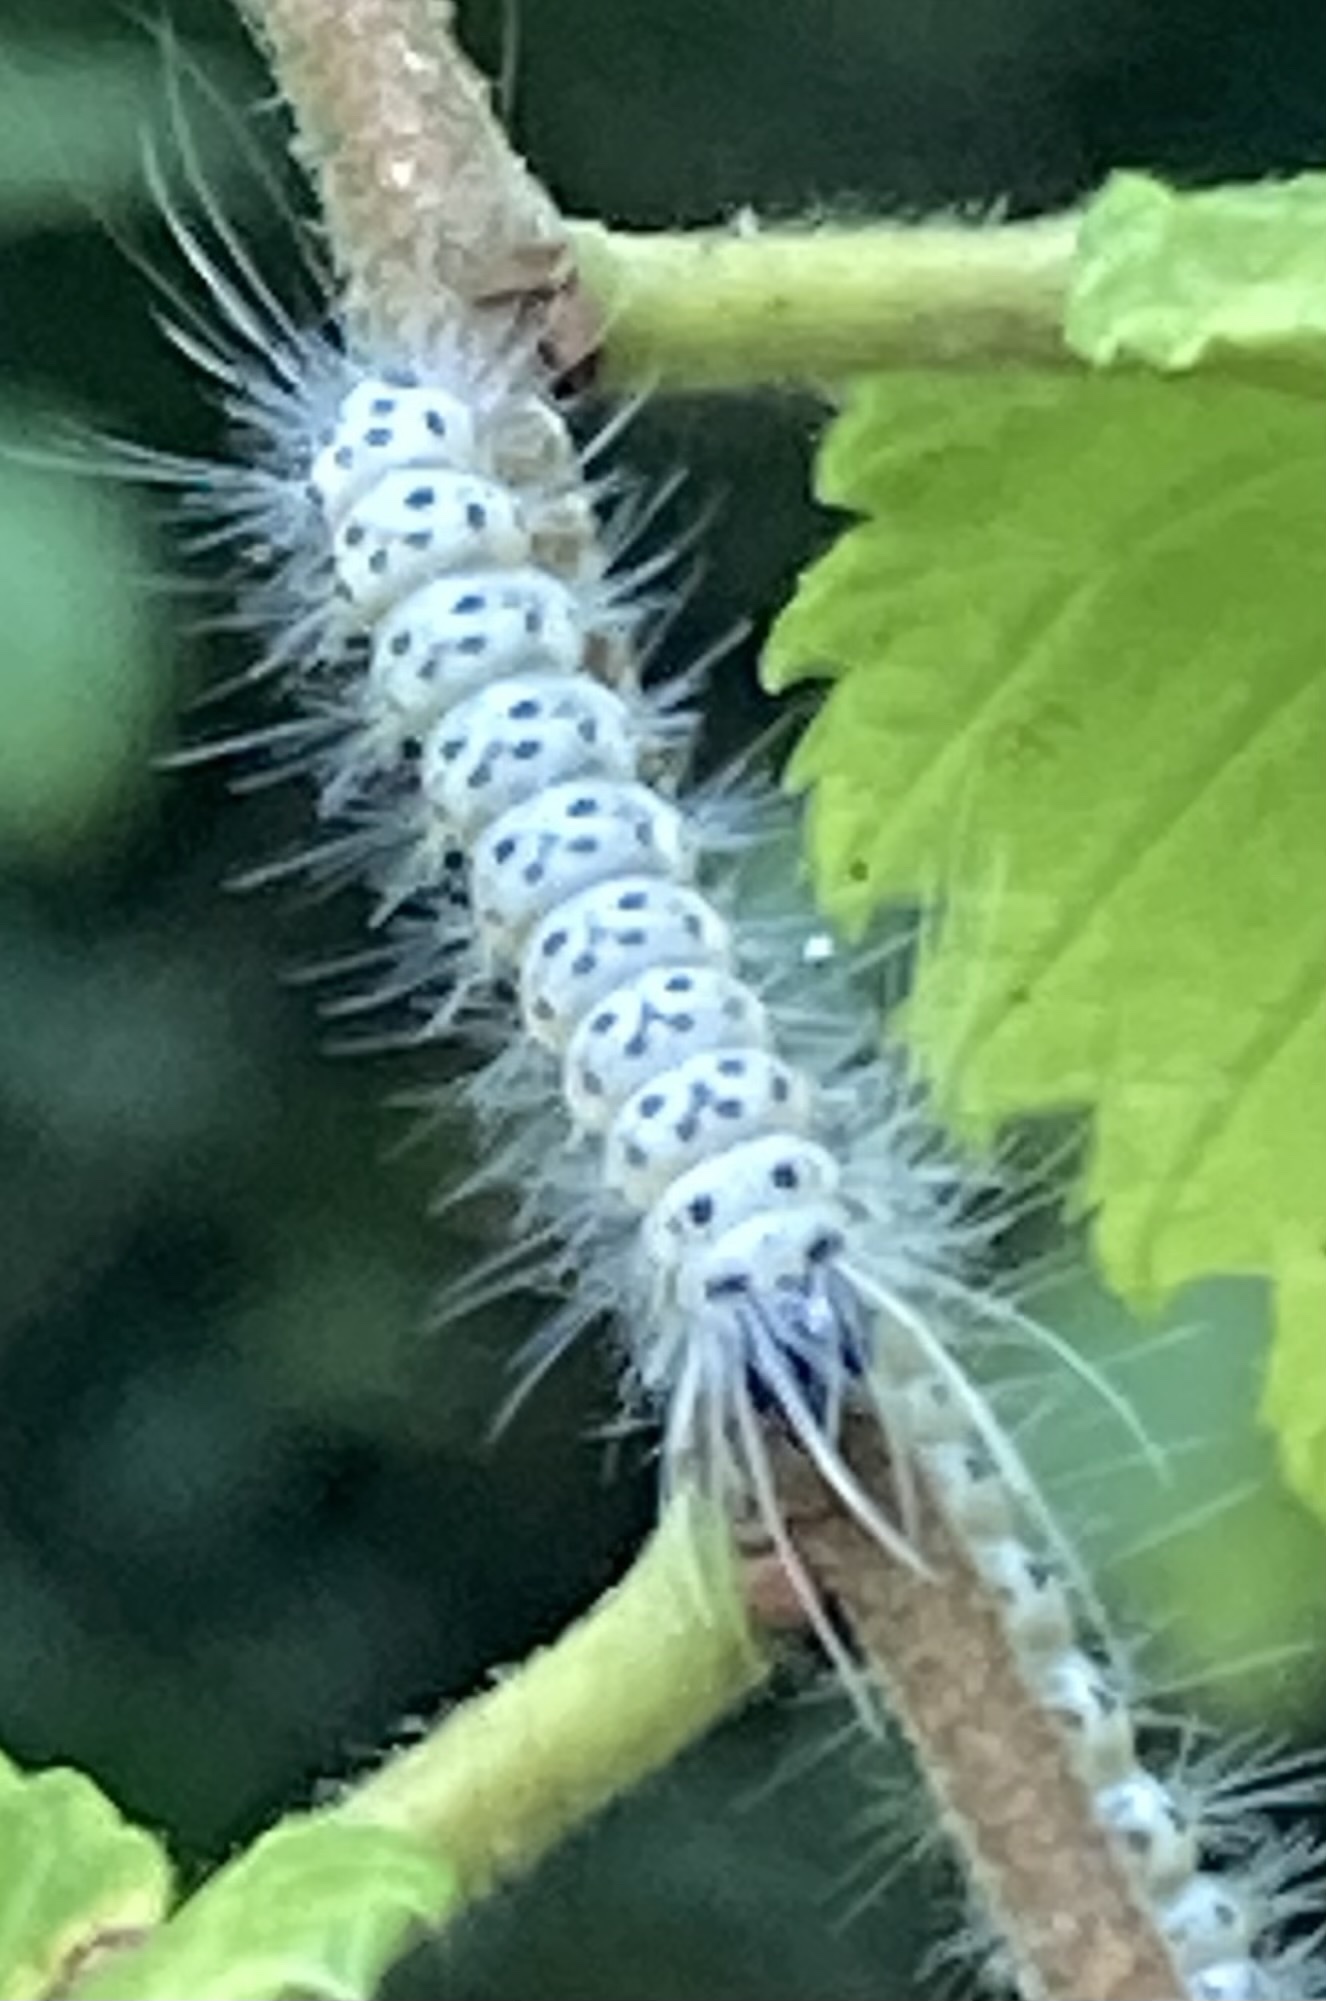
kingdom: Animalia
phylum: Arthropoda
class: Insecta
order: Lepidoptera
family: Erebidae
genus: Lophocampa
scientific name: Lophocampa caryae
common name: Hickory tussock moth
